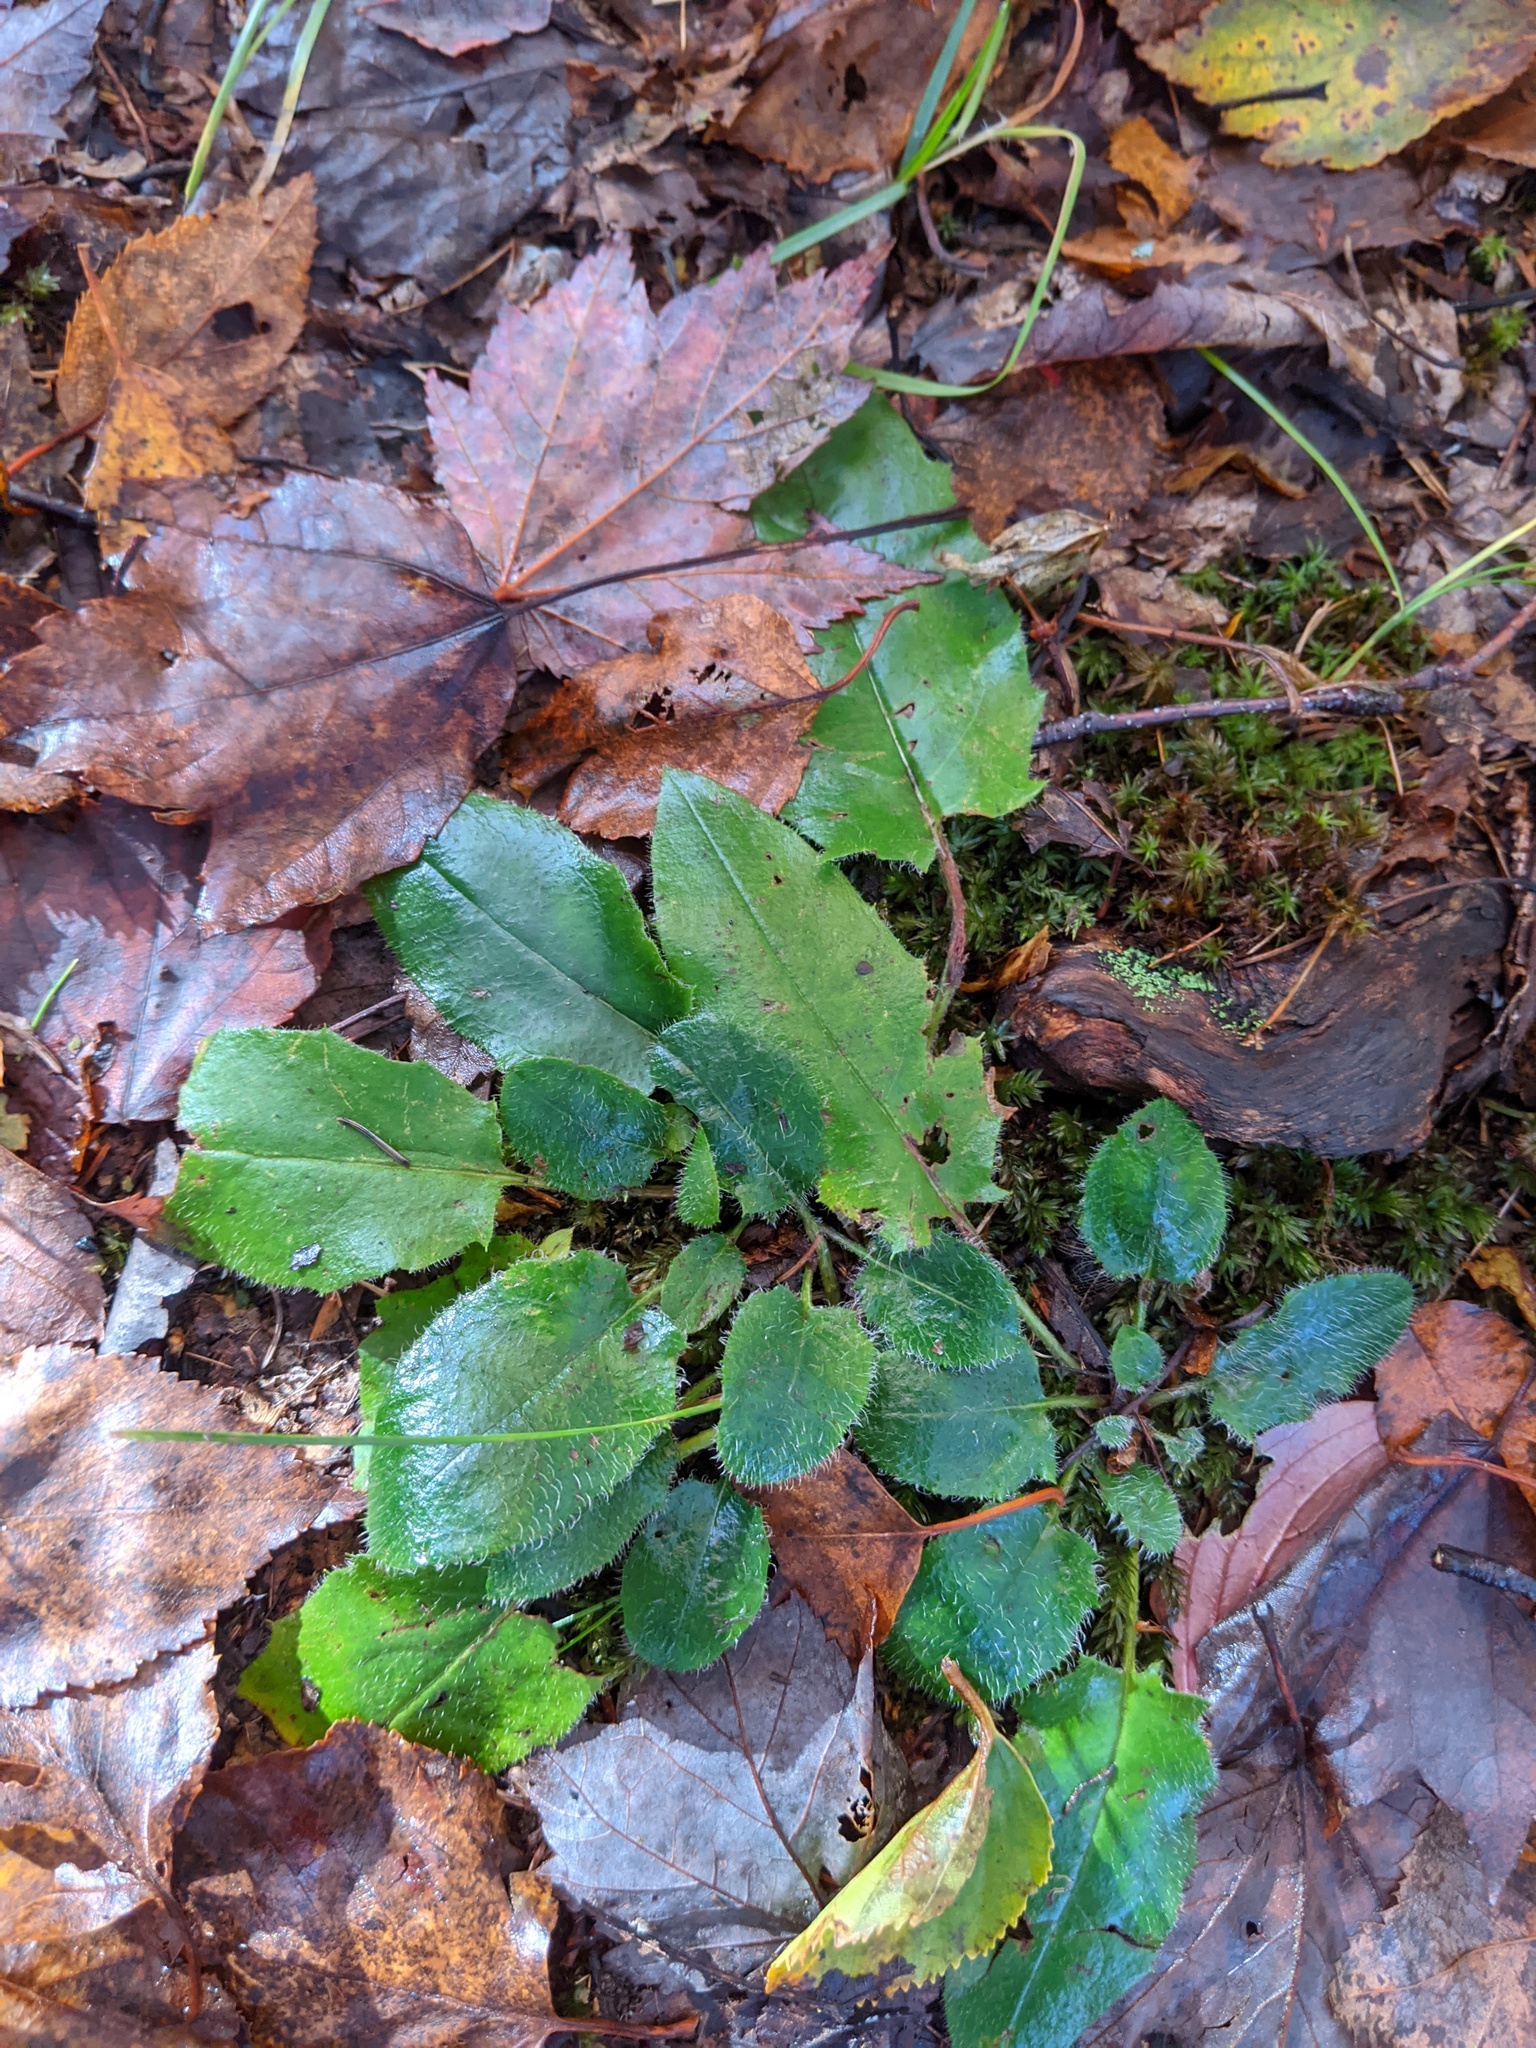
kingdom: Plantae
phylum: Tracheophyta
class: Magnoliopsida
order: Asterales
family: Asteraceae
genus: Hieracium
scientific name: Hieracium murorum
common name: Wall hawkweed
